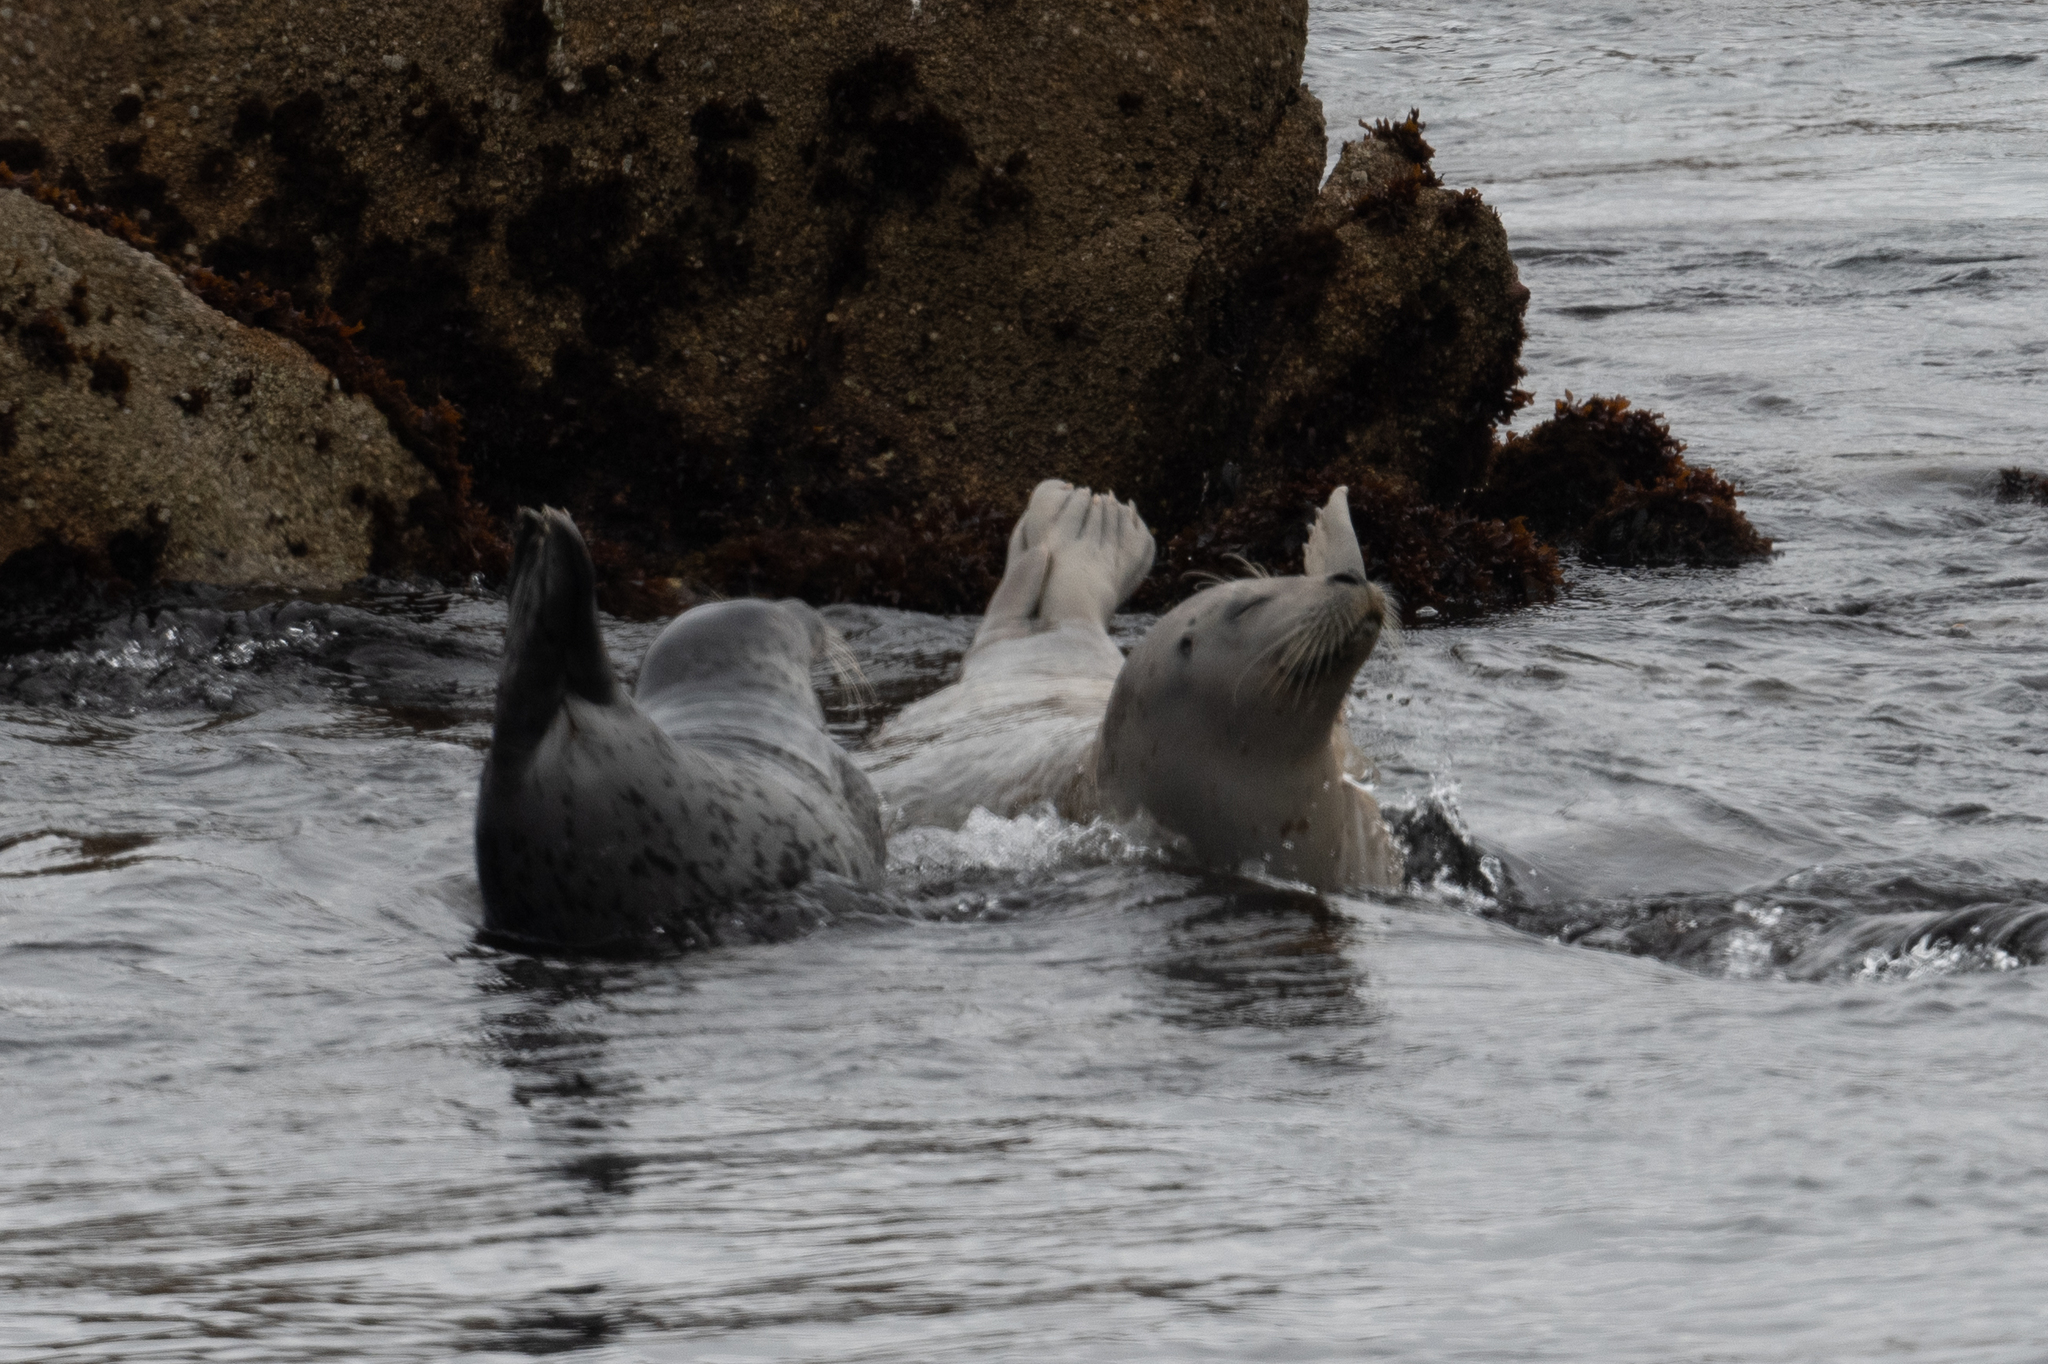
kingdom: Animalia
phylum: Chordata
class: Mammalia
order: Carnivora
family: Phocidae
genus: Phoca
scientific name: Phoca vitulina
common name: Harbor seal
